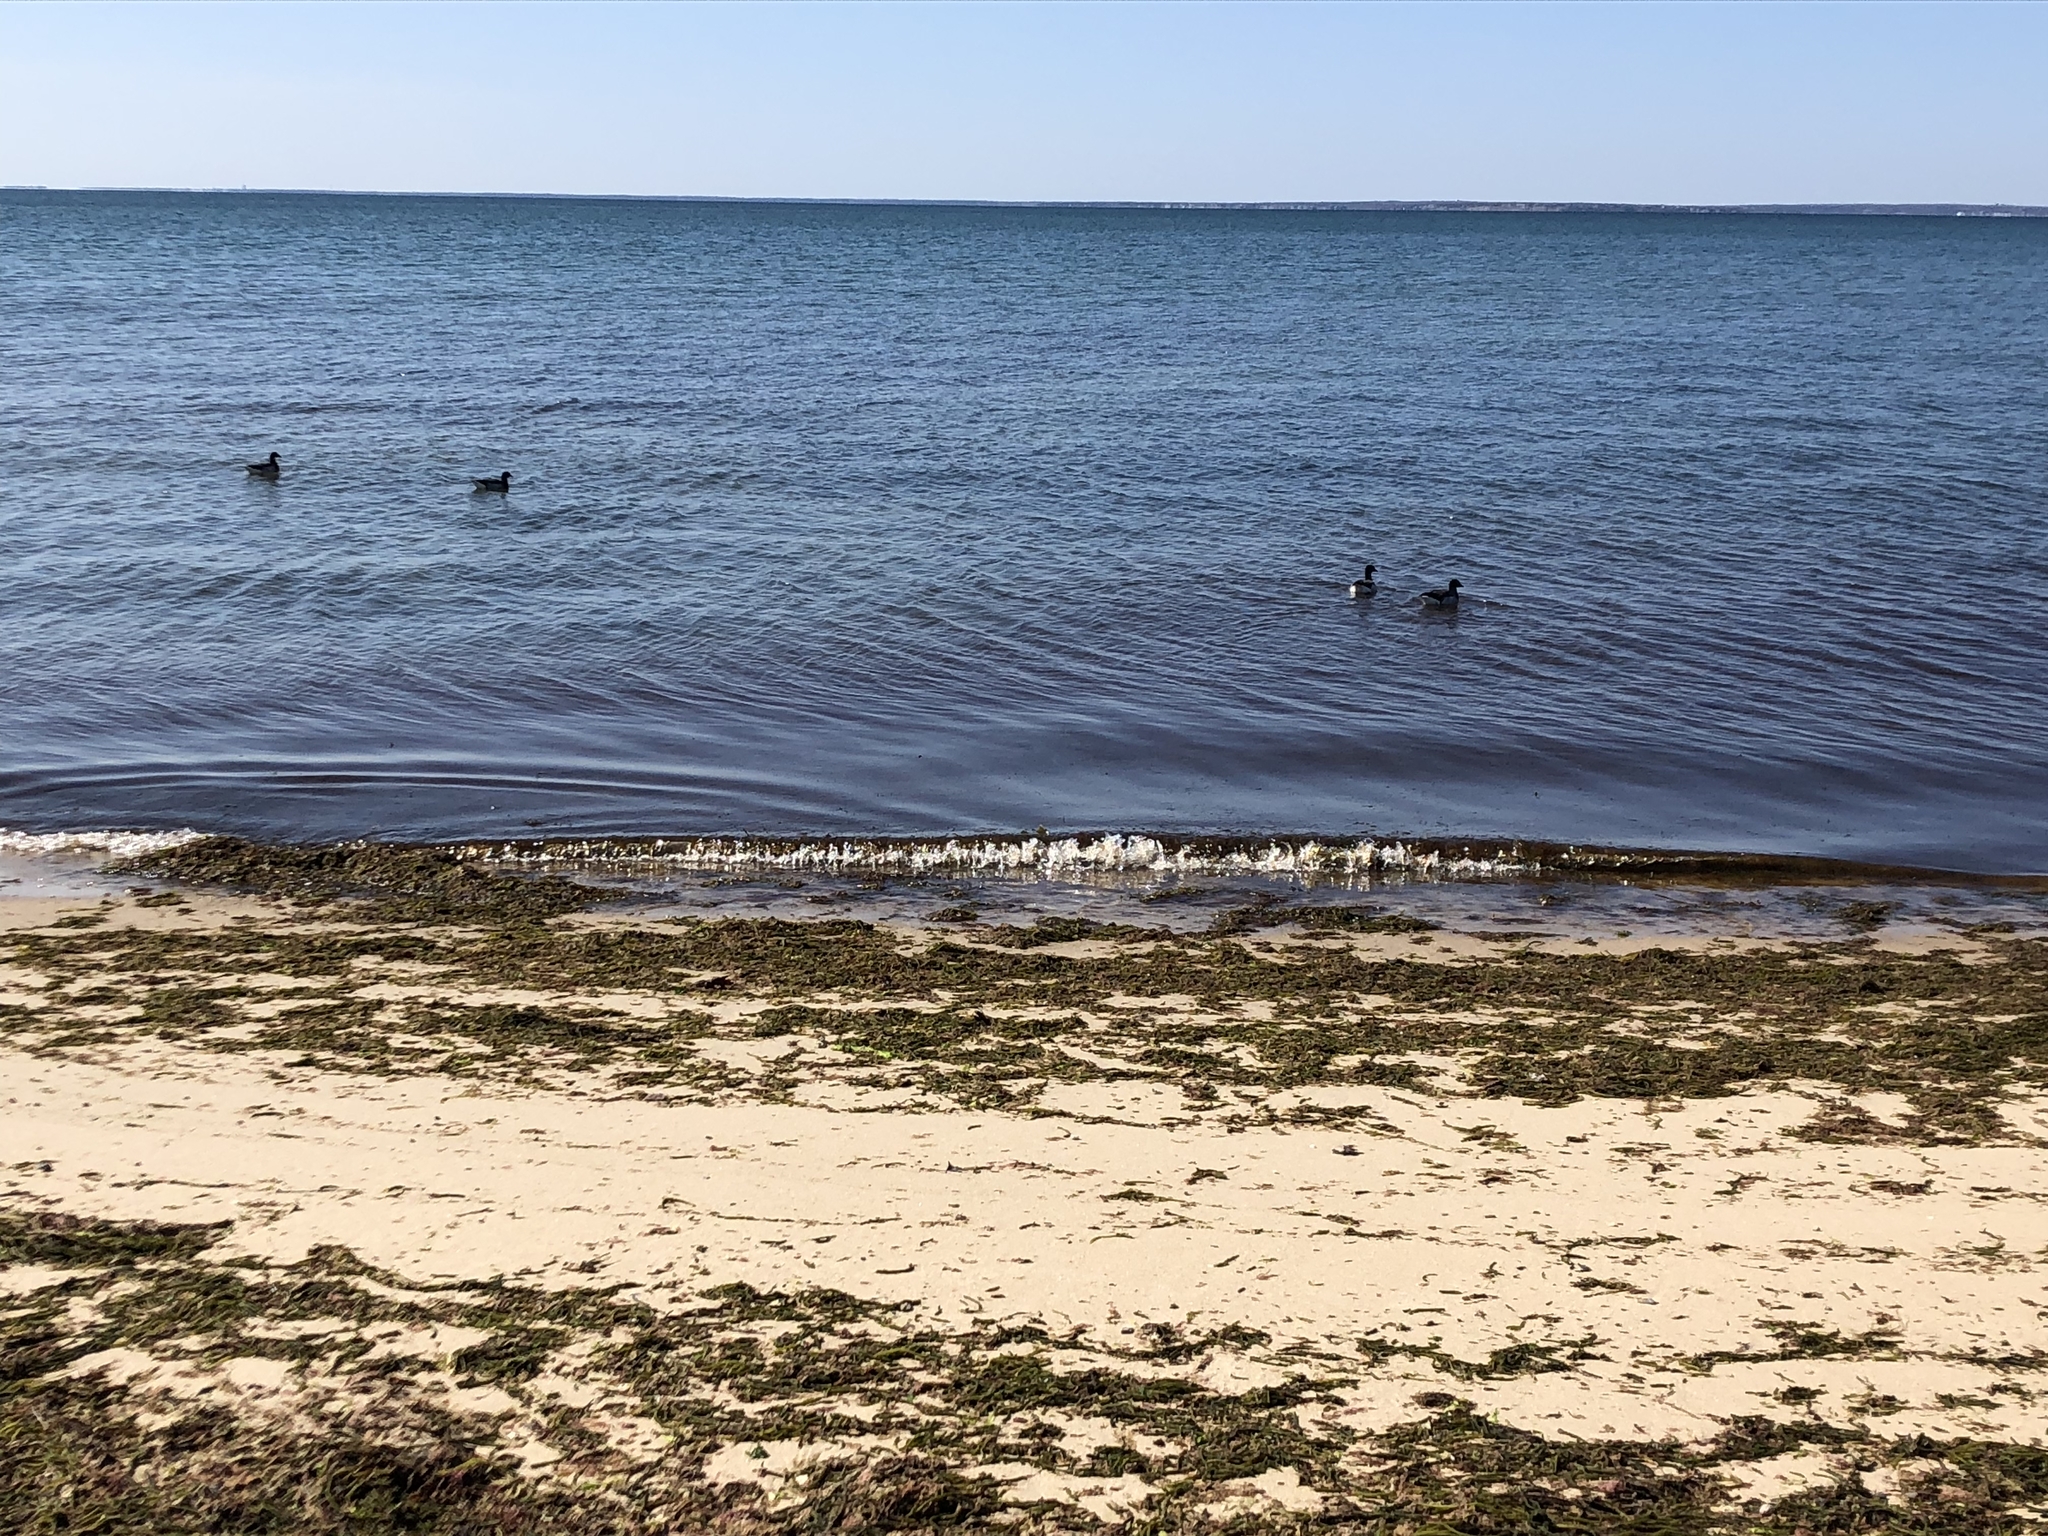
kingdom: Animalia
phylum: Chordata
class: Aves
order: Anseriformes
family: Anatidae
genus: Branta
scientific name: Branta bernicla
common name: Brant goose
